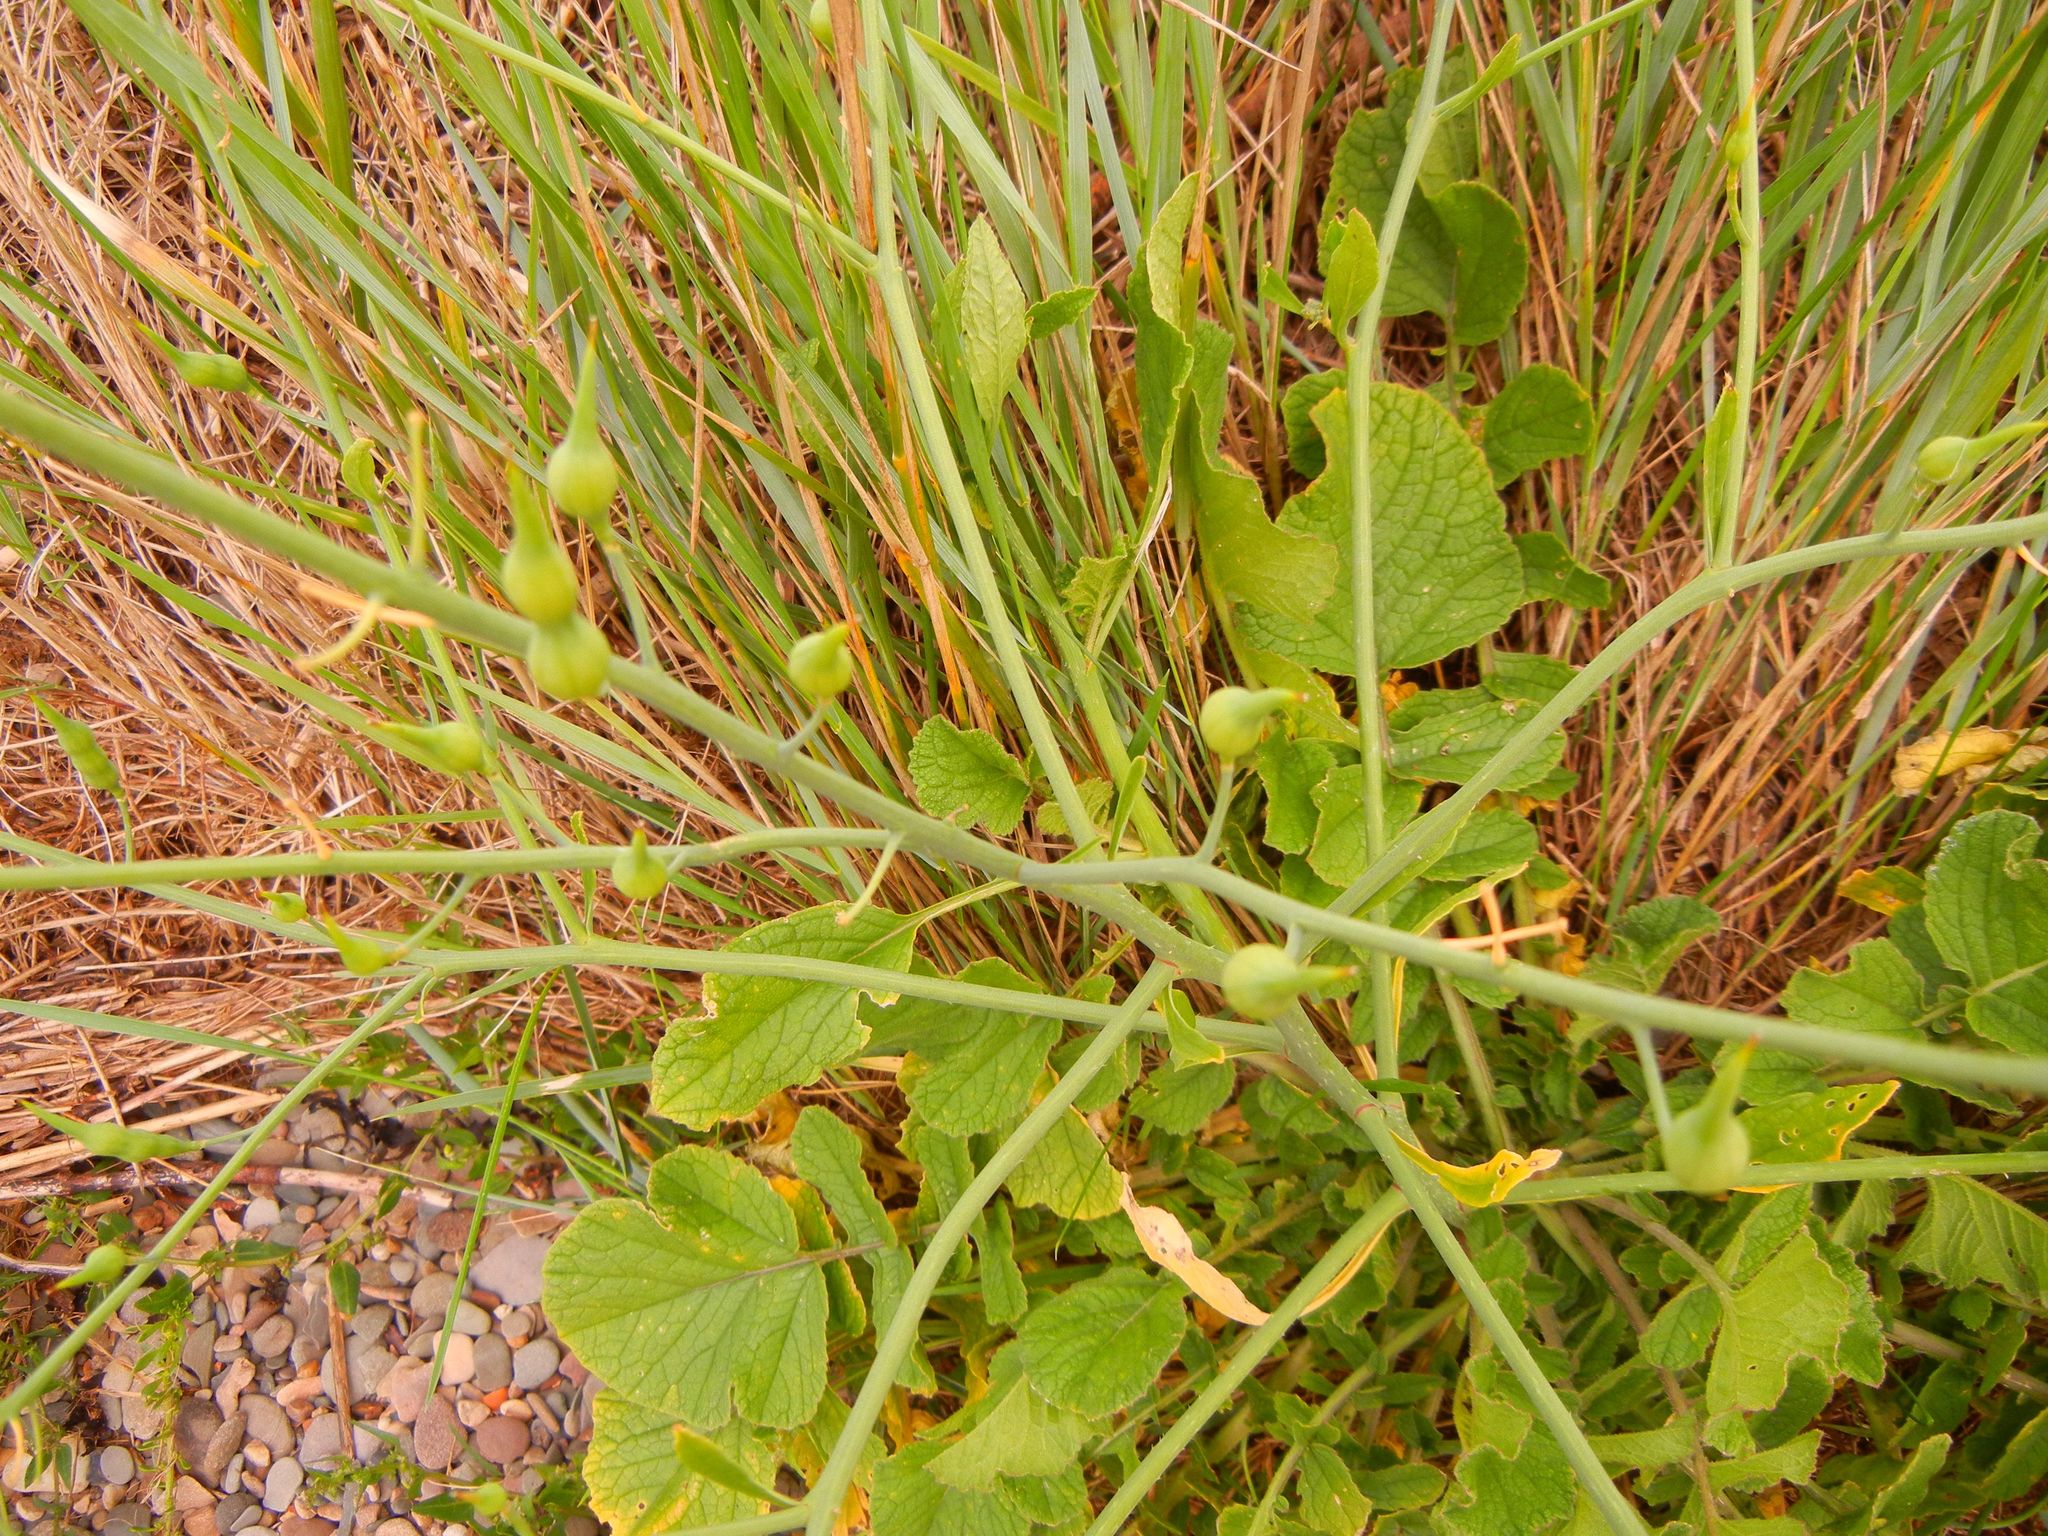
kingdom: Plantae
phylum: Tracheophyta
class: Magnoliopsida
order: Brassicales
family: Brassicaceae
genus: Raphanus
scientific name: Raphanus raphanistrum
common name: Wild radish
